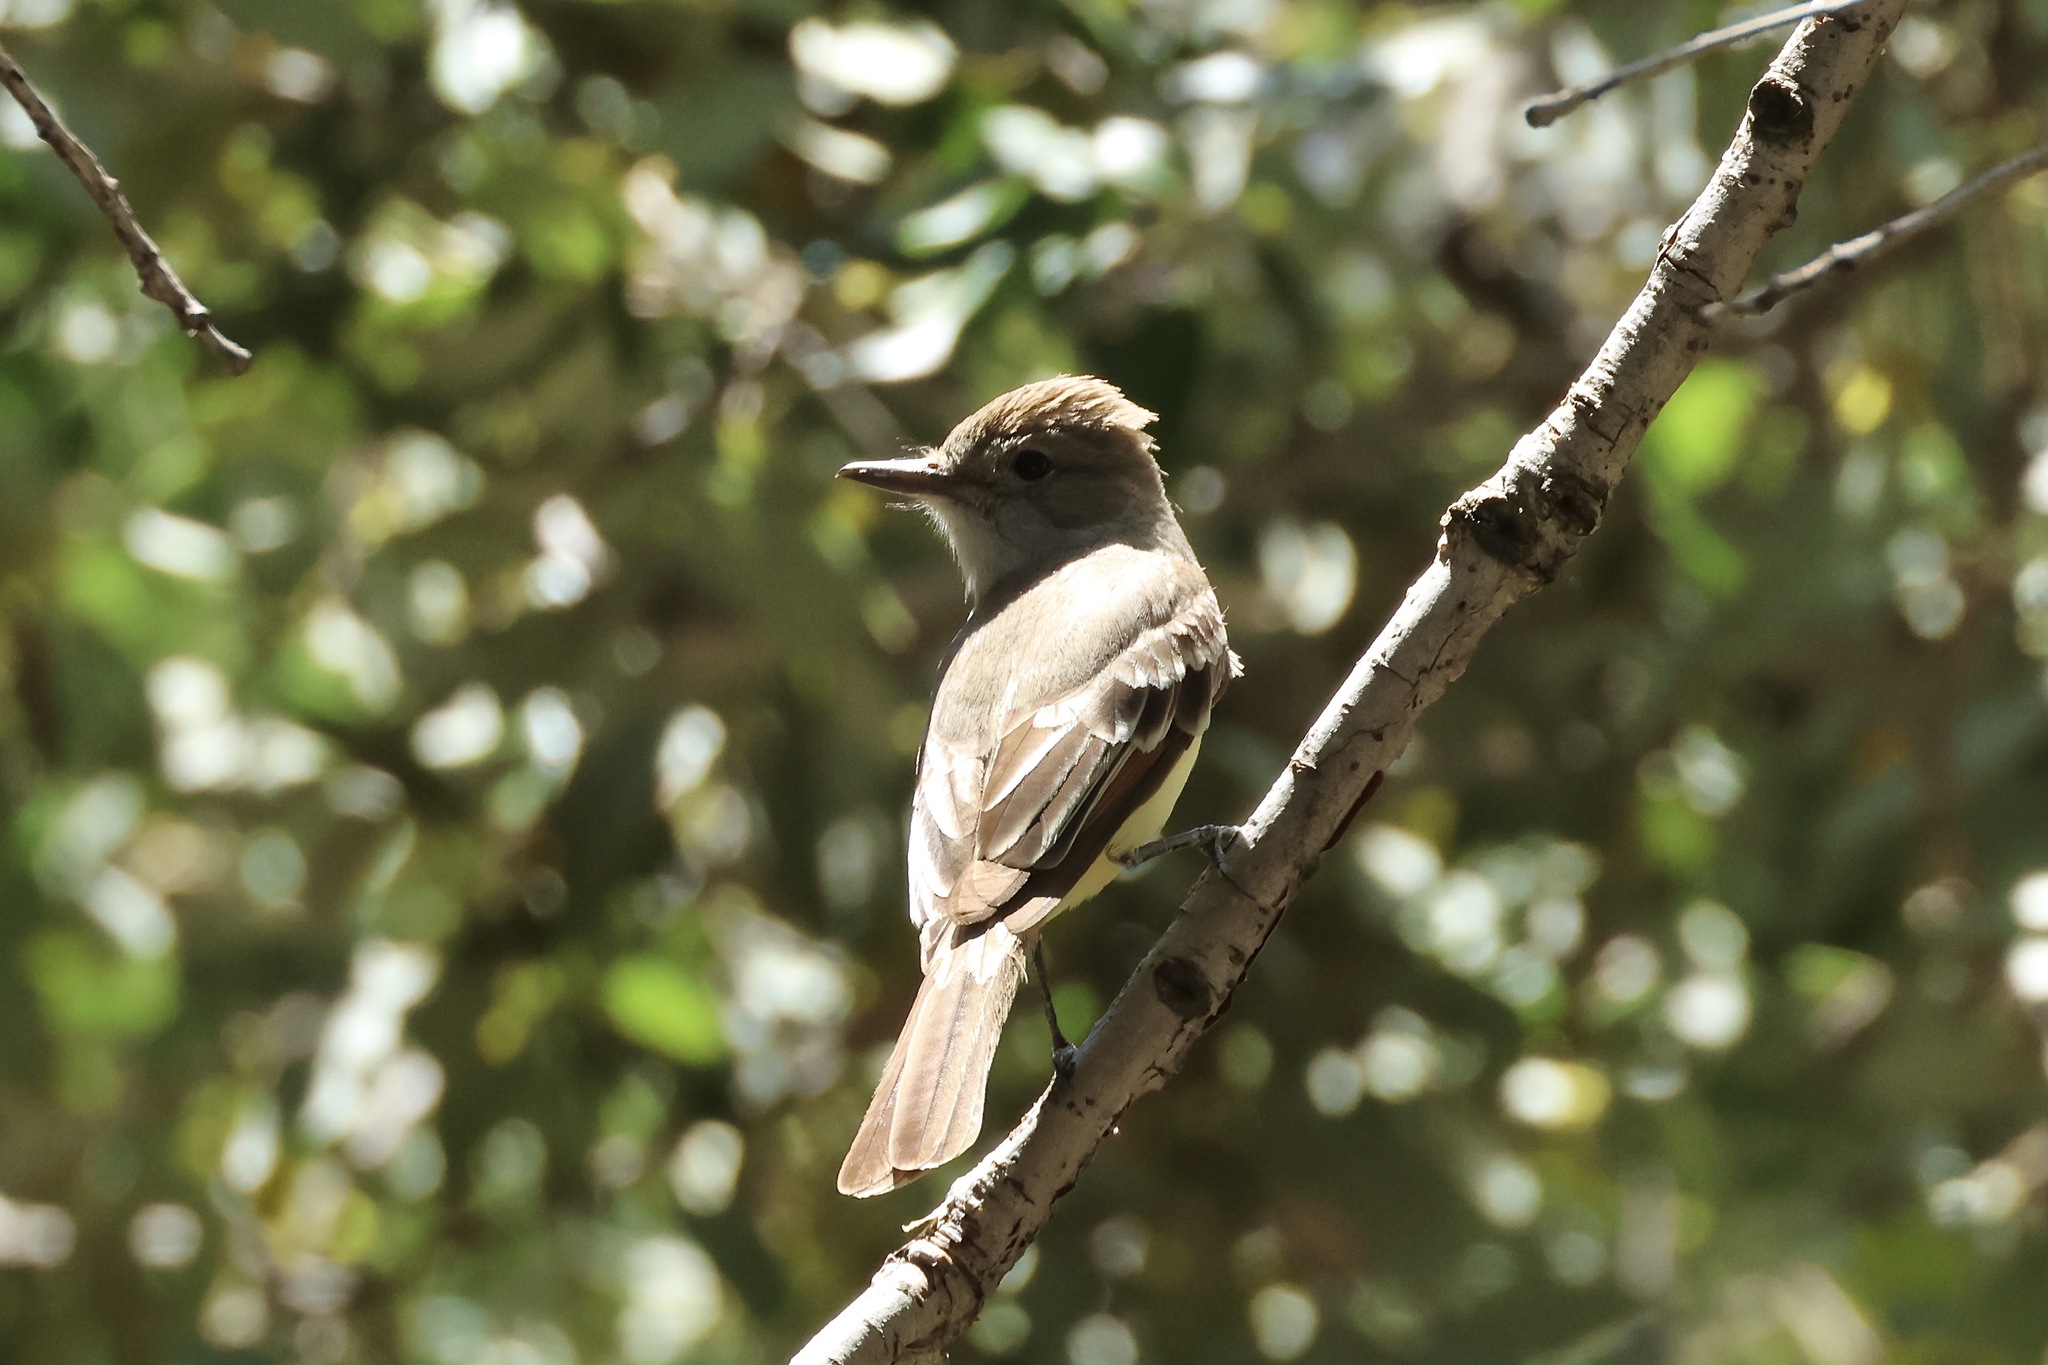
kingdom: Animalia
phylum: Chordata
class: Aves
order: Passeriformes
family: Tyrannidae
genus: Myiarchus
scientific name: Myiarchus cinerascens
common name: Ash-throated flycatcher
